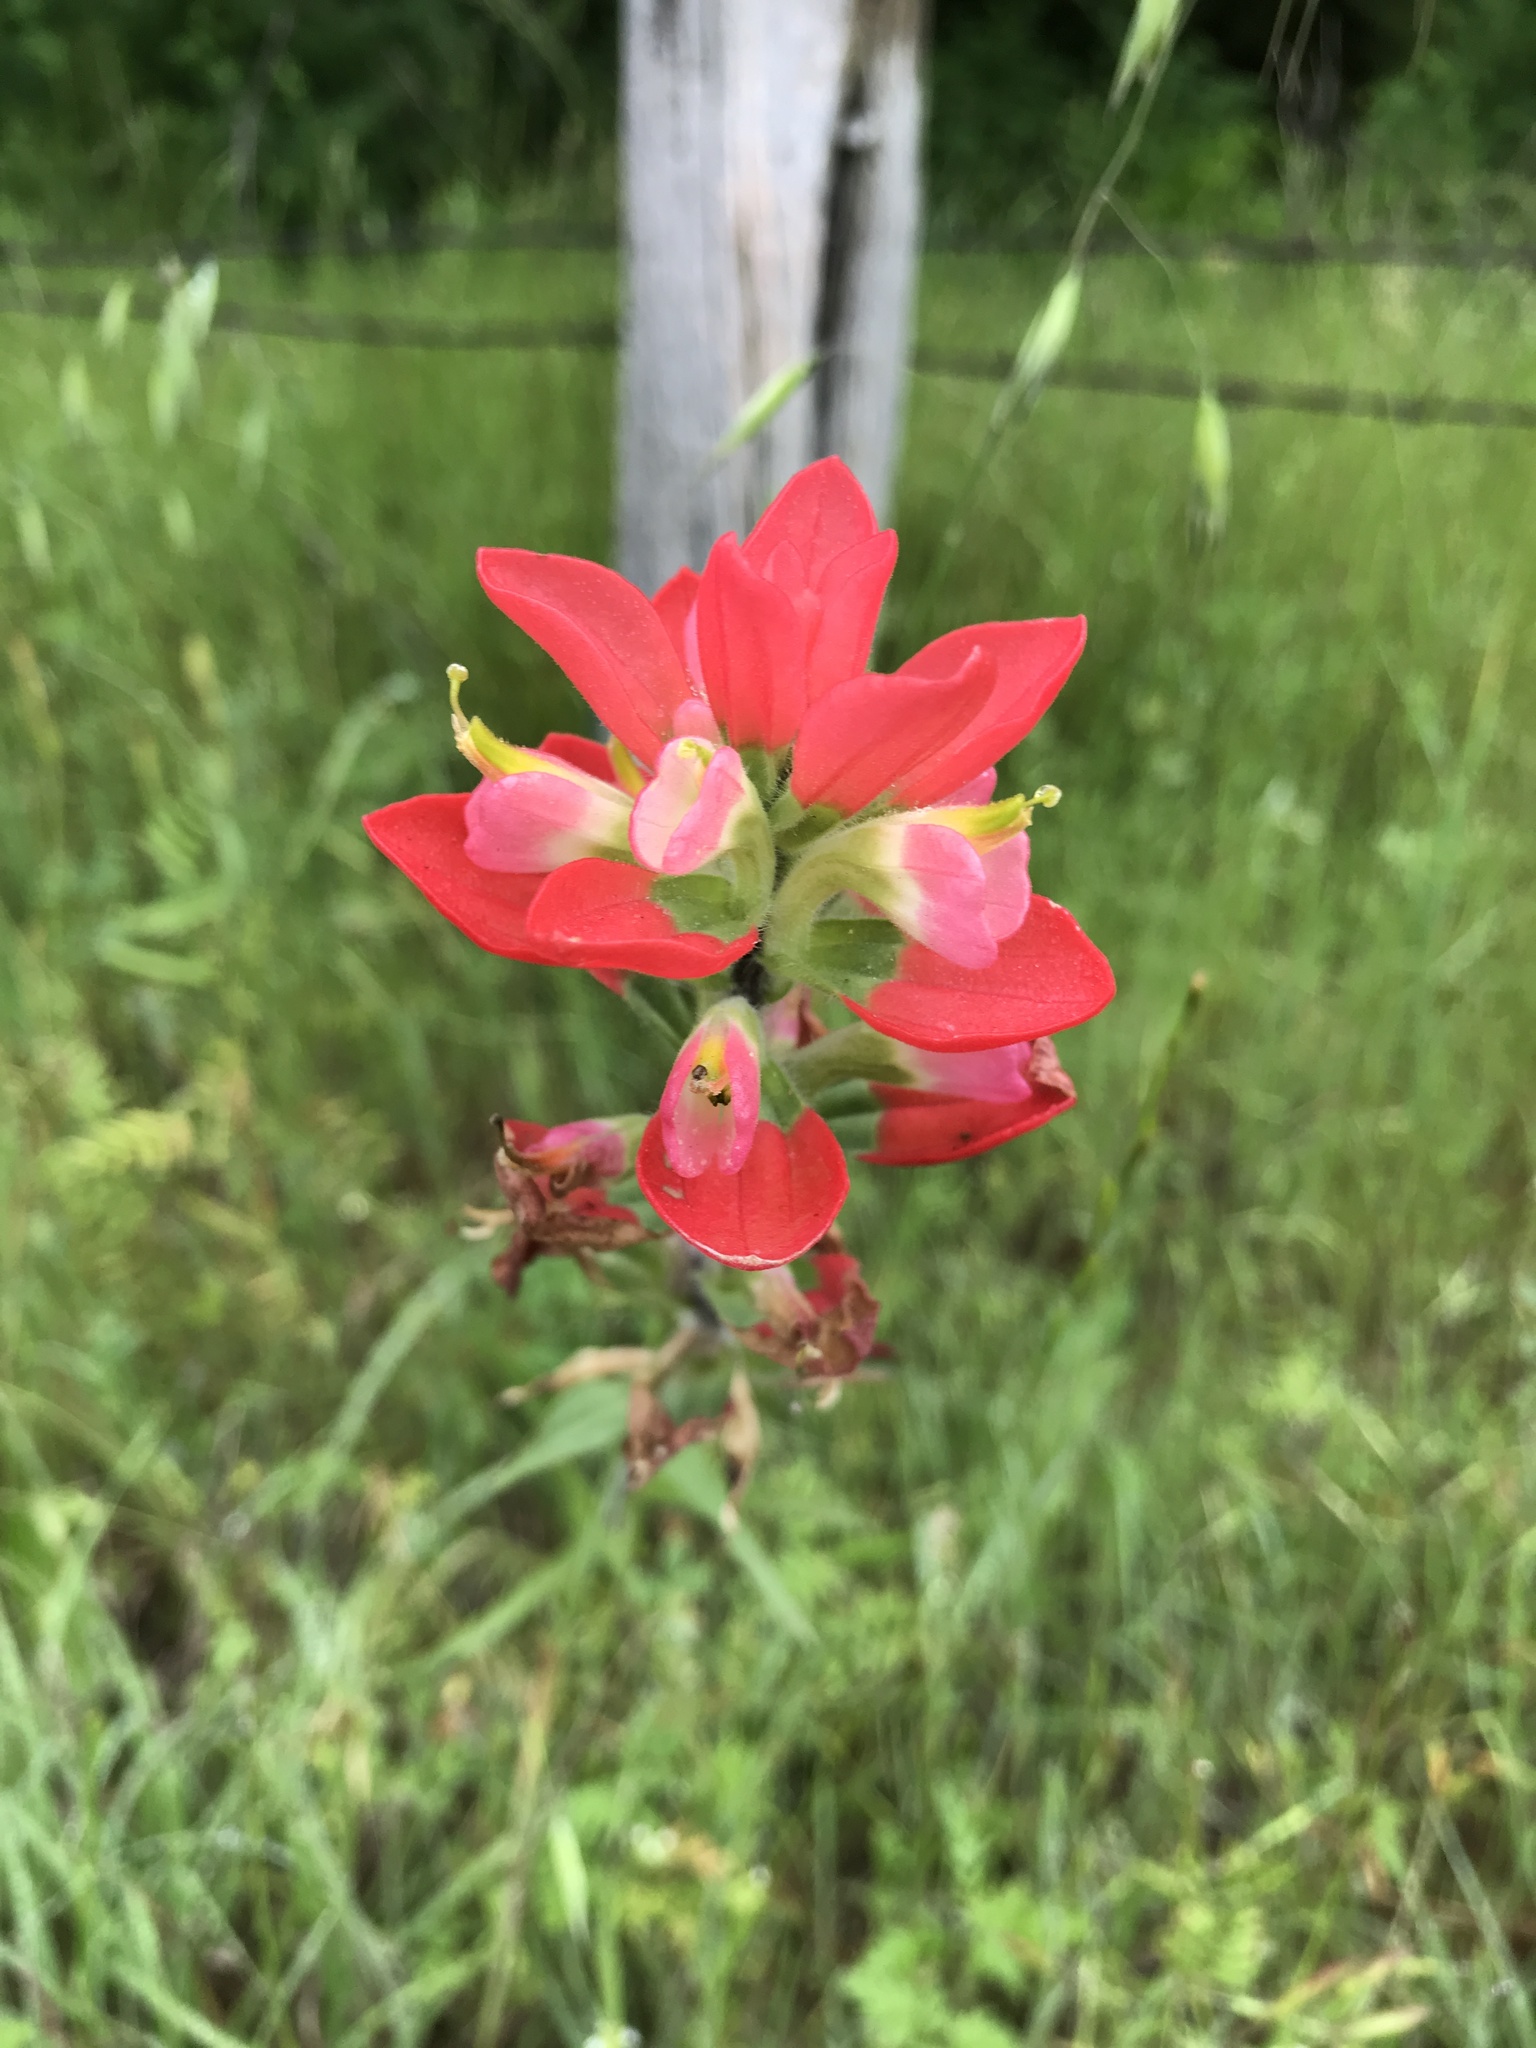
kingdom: Plantae
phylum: Tracheophyta
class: Magnoliopsida
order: Lamiales
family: Orobanchaceae
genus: Castilleja
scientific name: Castilleja indivisa
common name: Texas paintbrush
